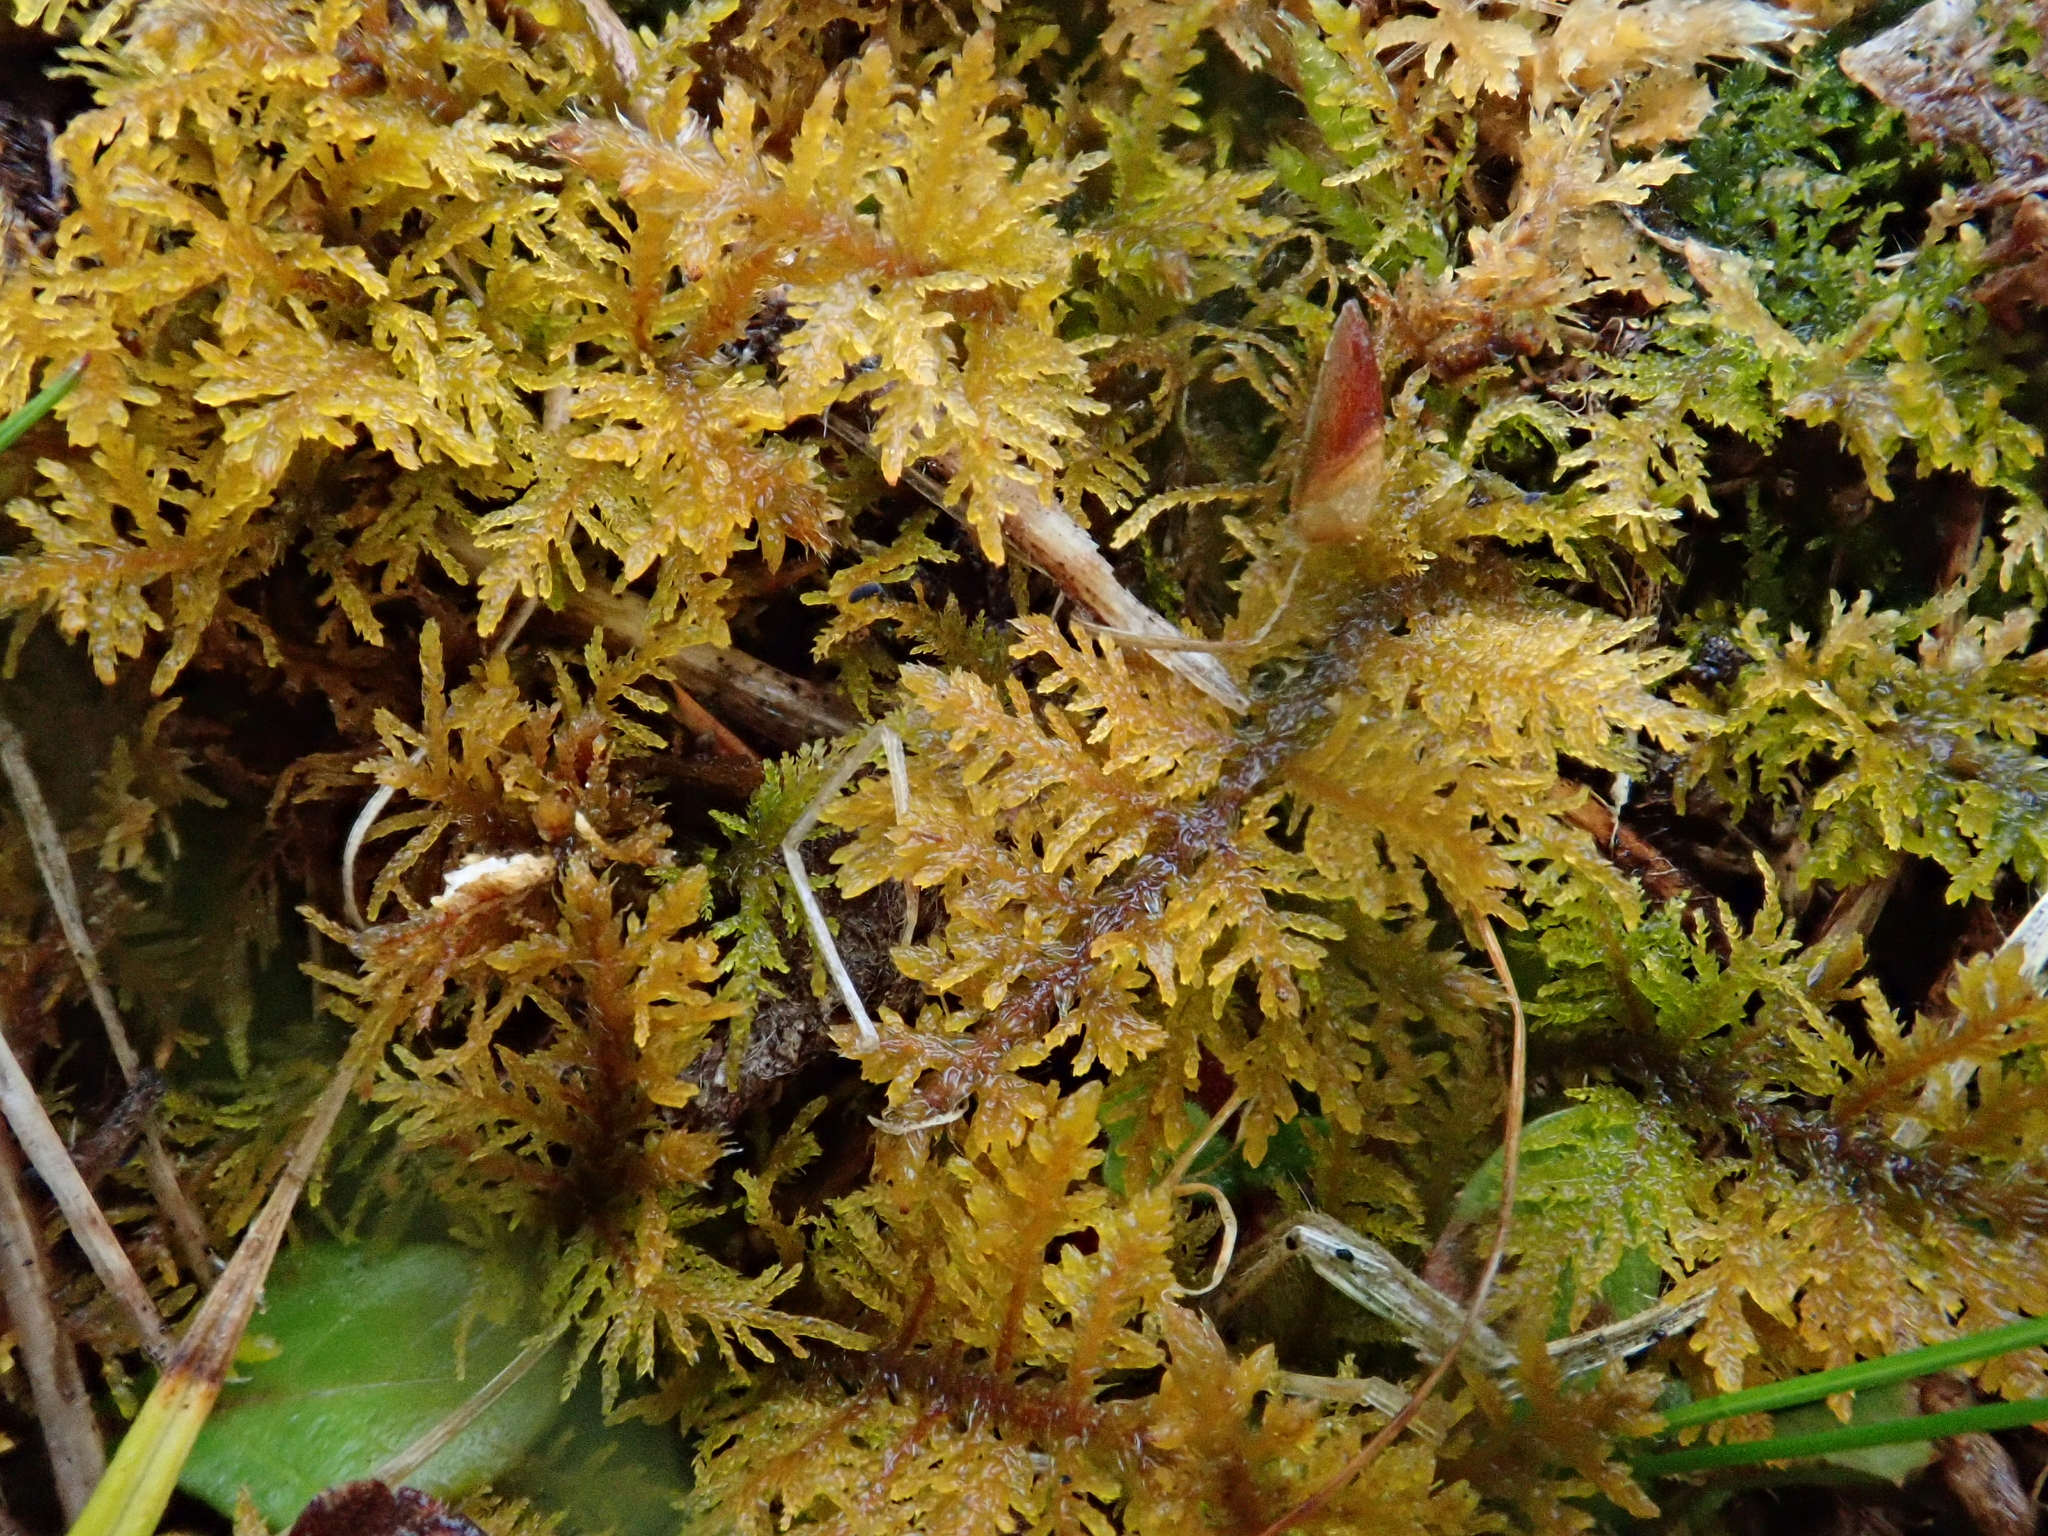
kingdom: Plantae
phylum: Bryophyta
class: Bryopsida
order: Hypnales
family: Thuidiaceae
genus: Thuidium
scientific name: Thuidium assimile
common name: Philibert's fern moss
